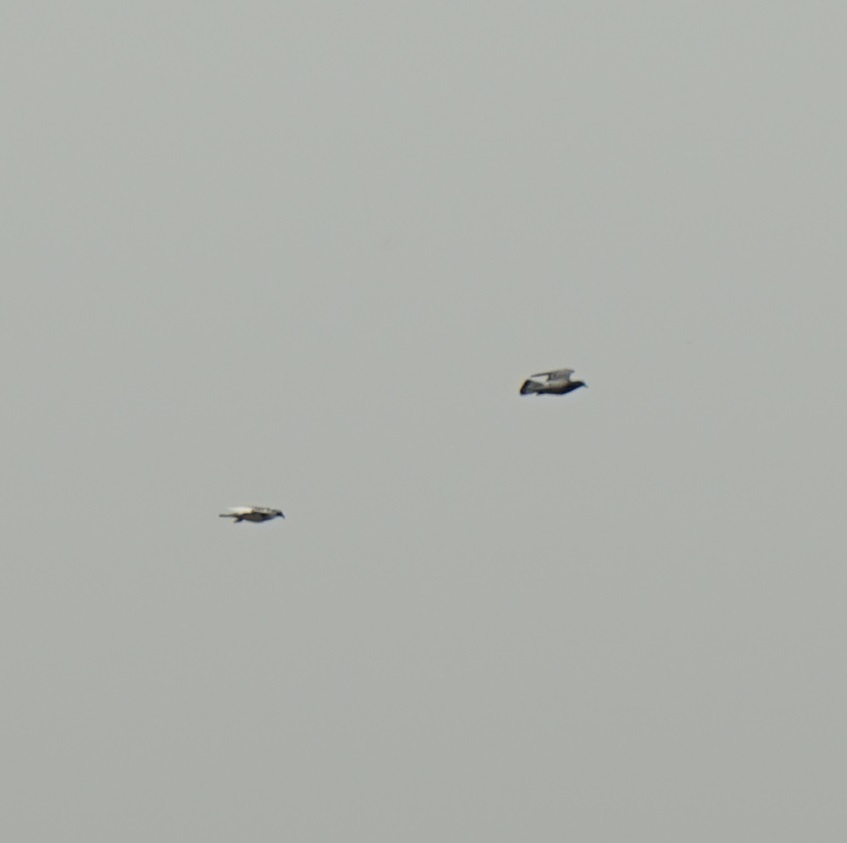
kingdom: Animalia
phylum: Chordata
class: Aves
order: Columbiformes
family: Columbidae
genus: Columba
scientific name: Columba livia
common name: Rock pigeon
